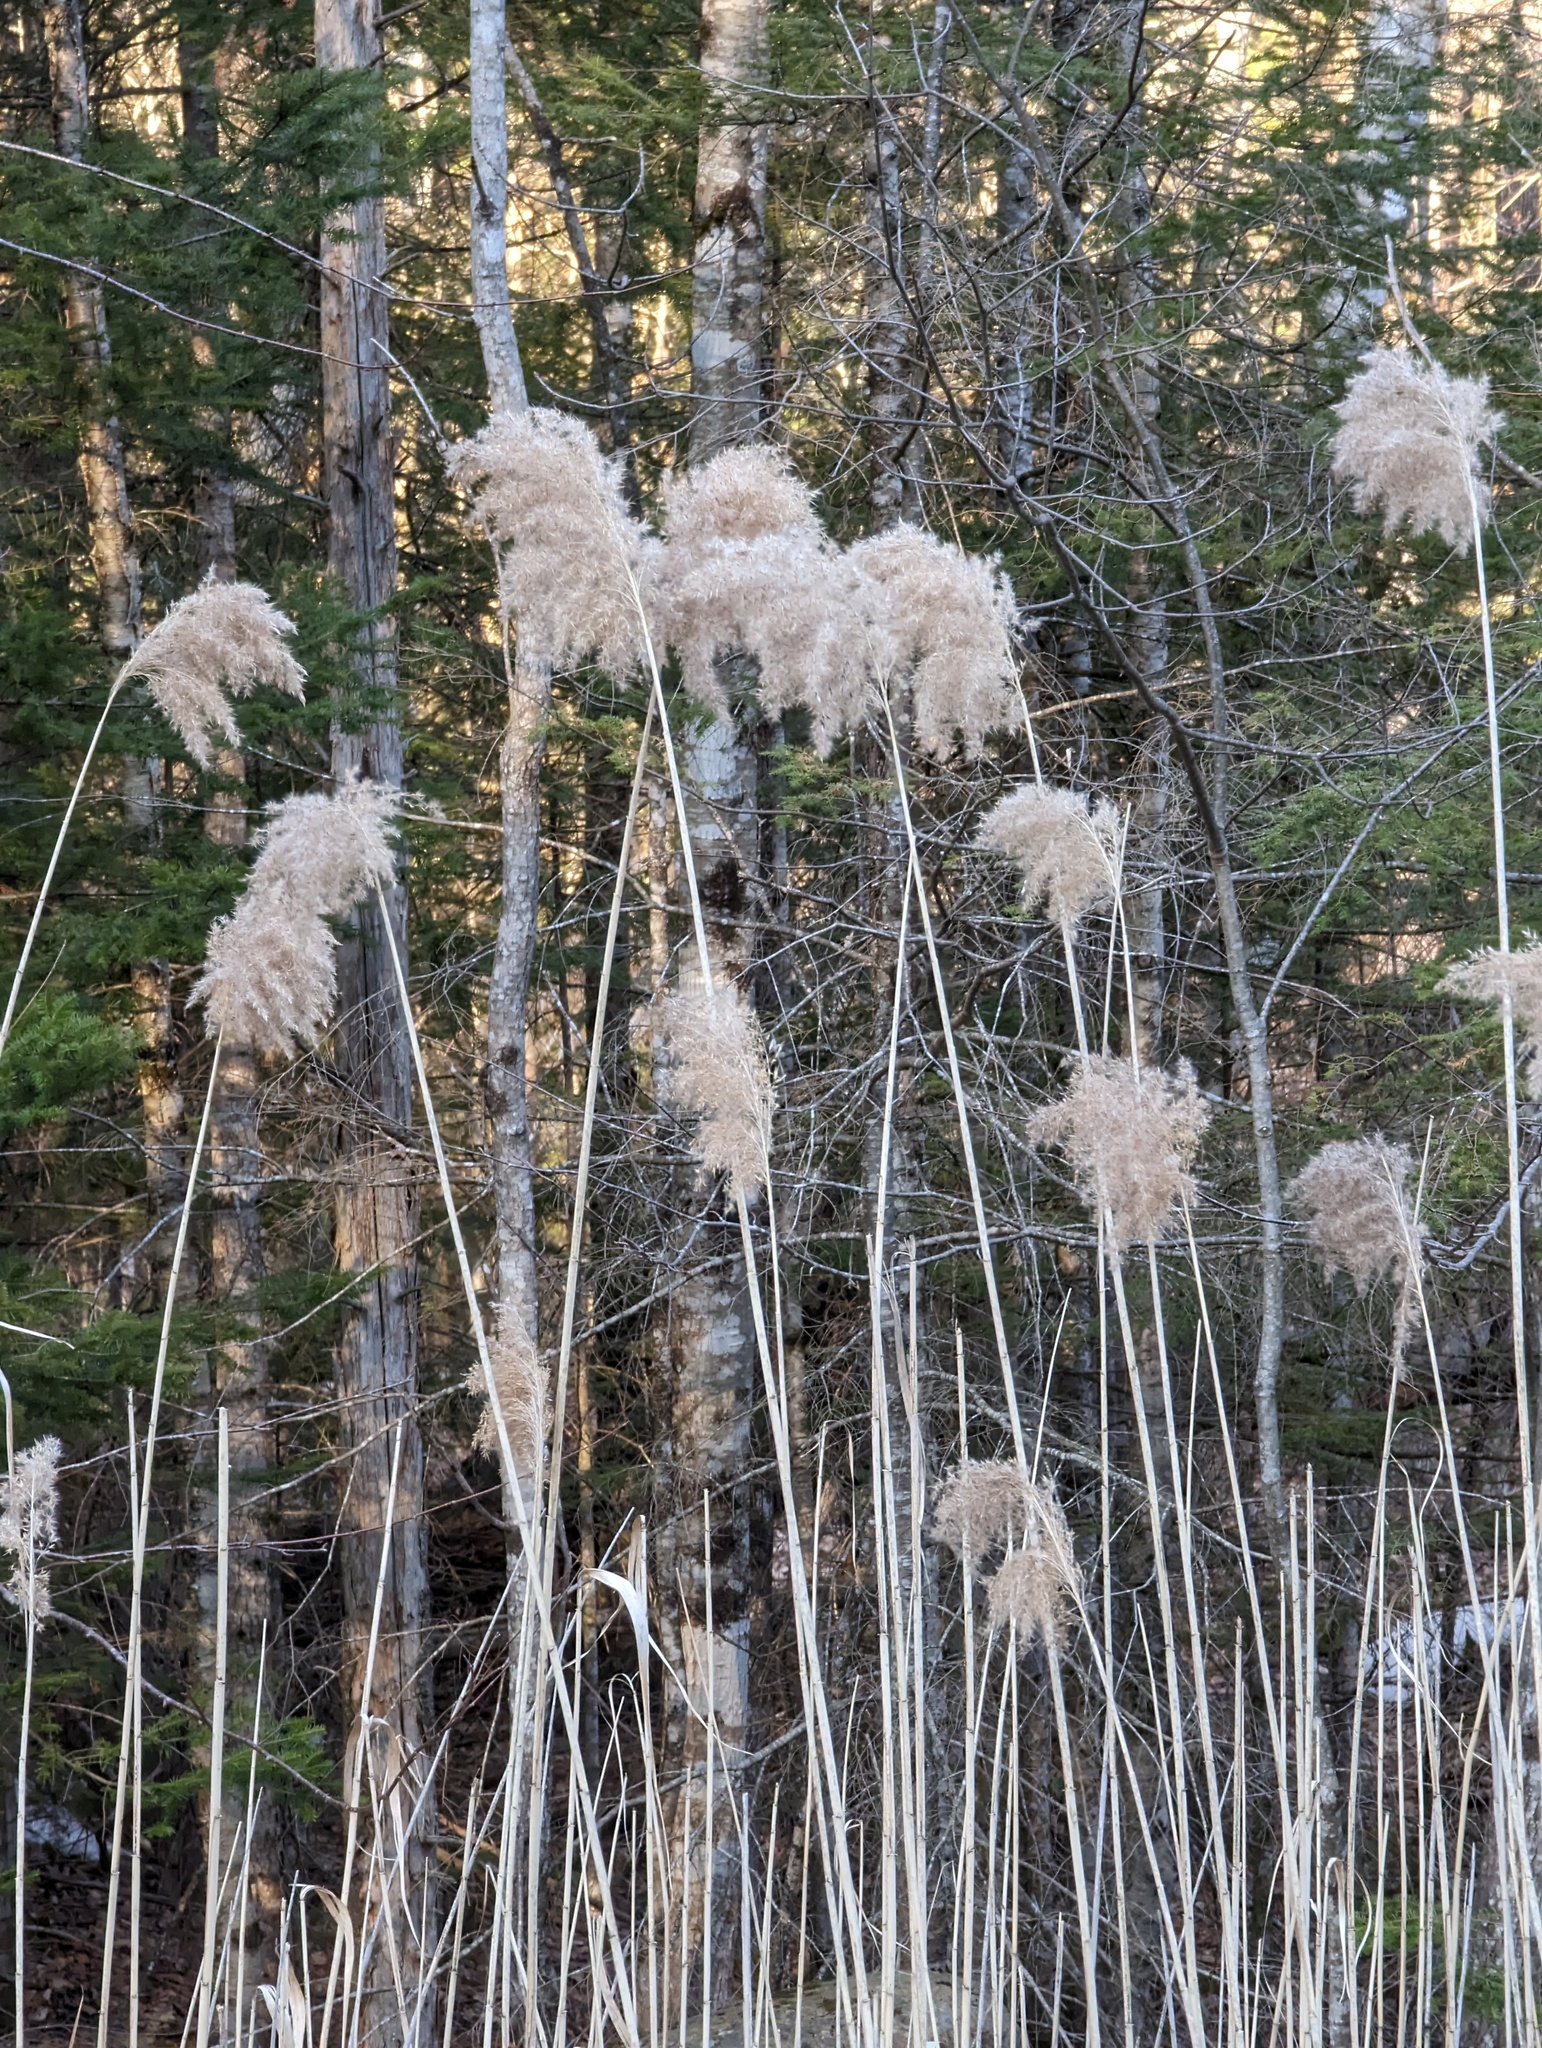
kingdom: Plantae
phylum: Tracheophyta
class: Liliopsida
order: Poales
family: Poaceae
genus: Phragmites
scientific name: Phragmites australis
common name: Common reed
